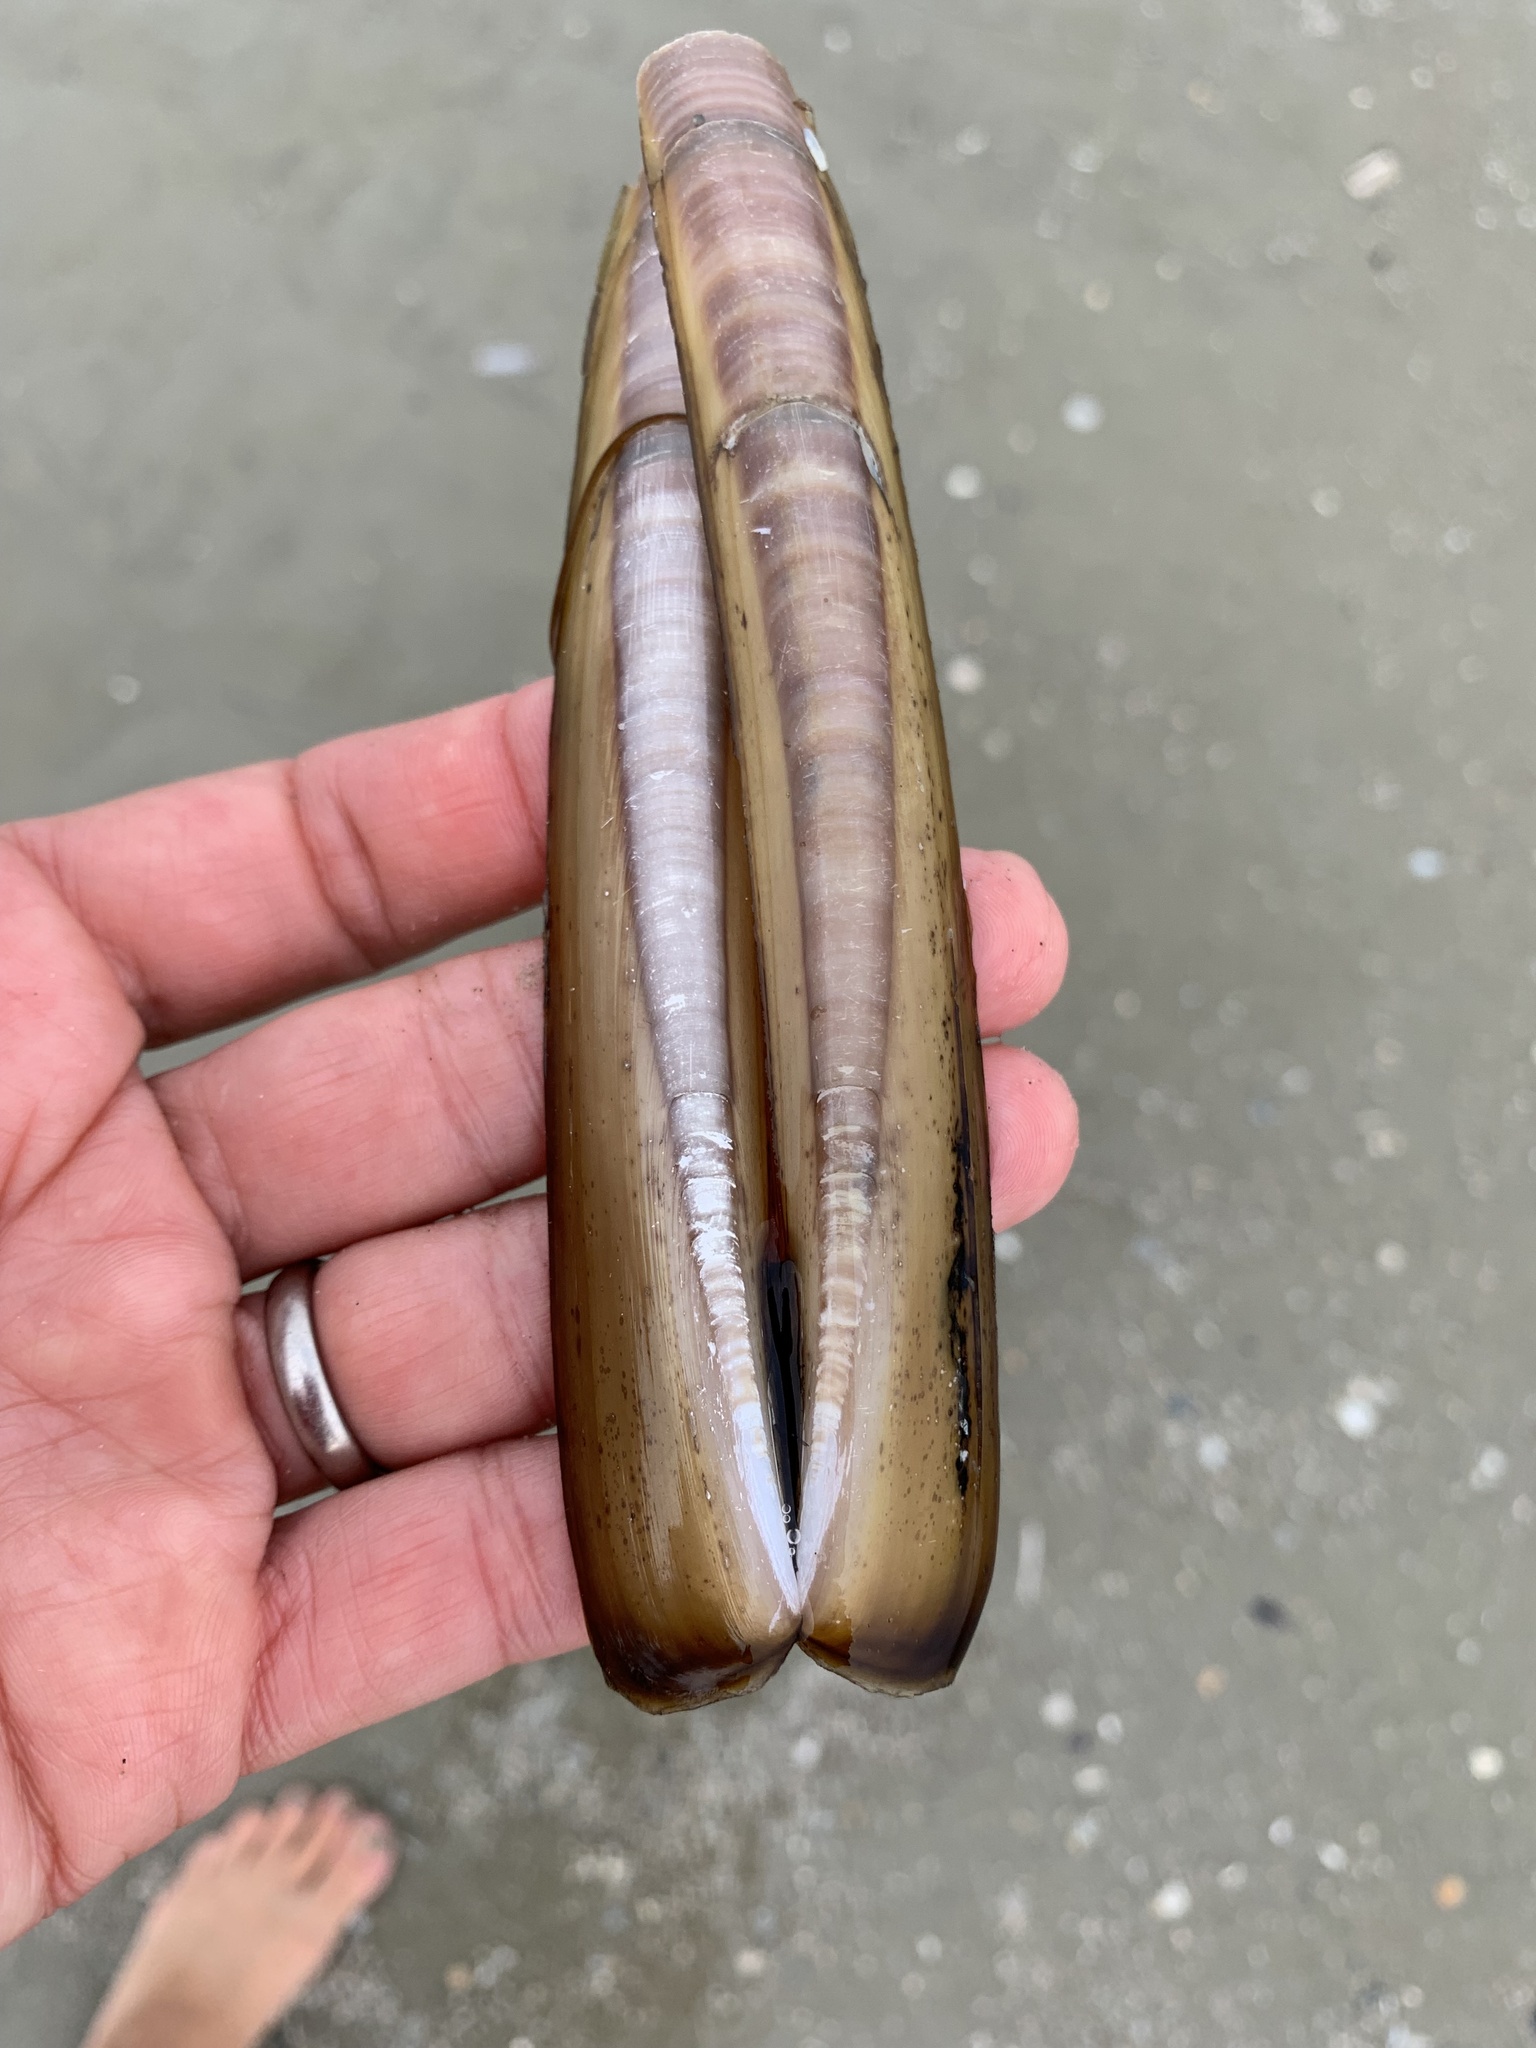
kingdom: Animalia
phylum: Mollusca
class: Bivalvia
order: Adapedonta
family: Pharidae
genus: Ensis
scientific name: Ensis leei
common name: American jack knife clam
